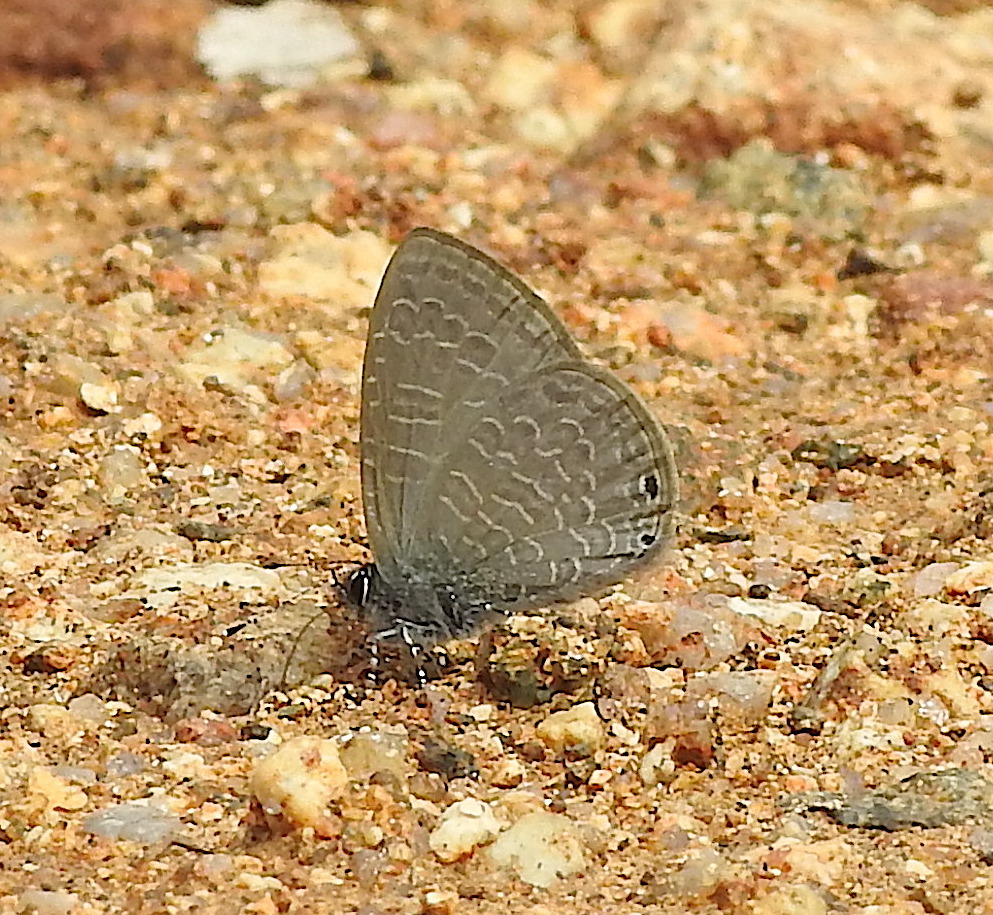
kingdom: Animalia
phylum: Arthropoda
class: Insecta
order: Lepidoptera
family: Lycaenidae
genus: Petrelaea
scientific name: Petrelaea dana
